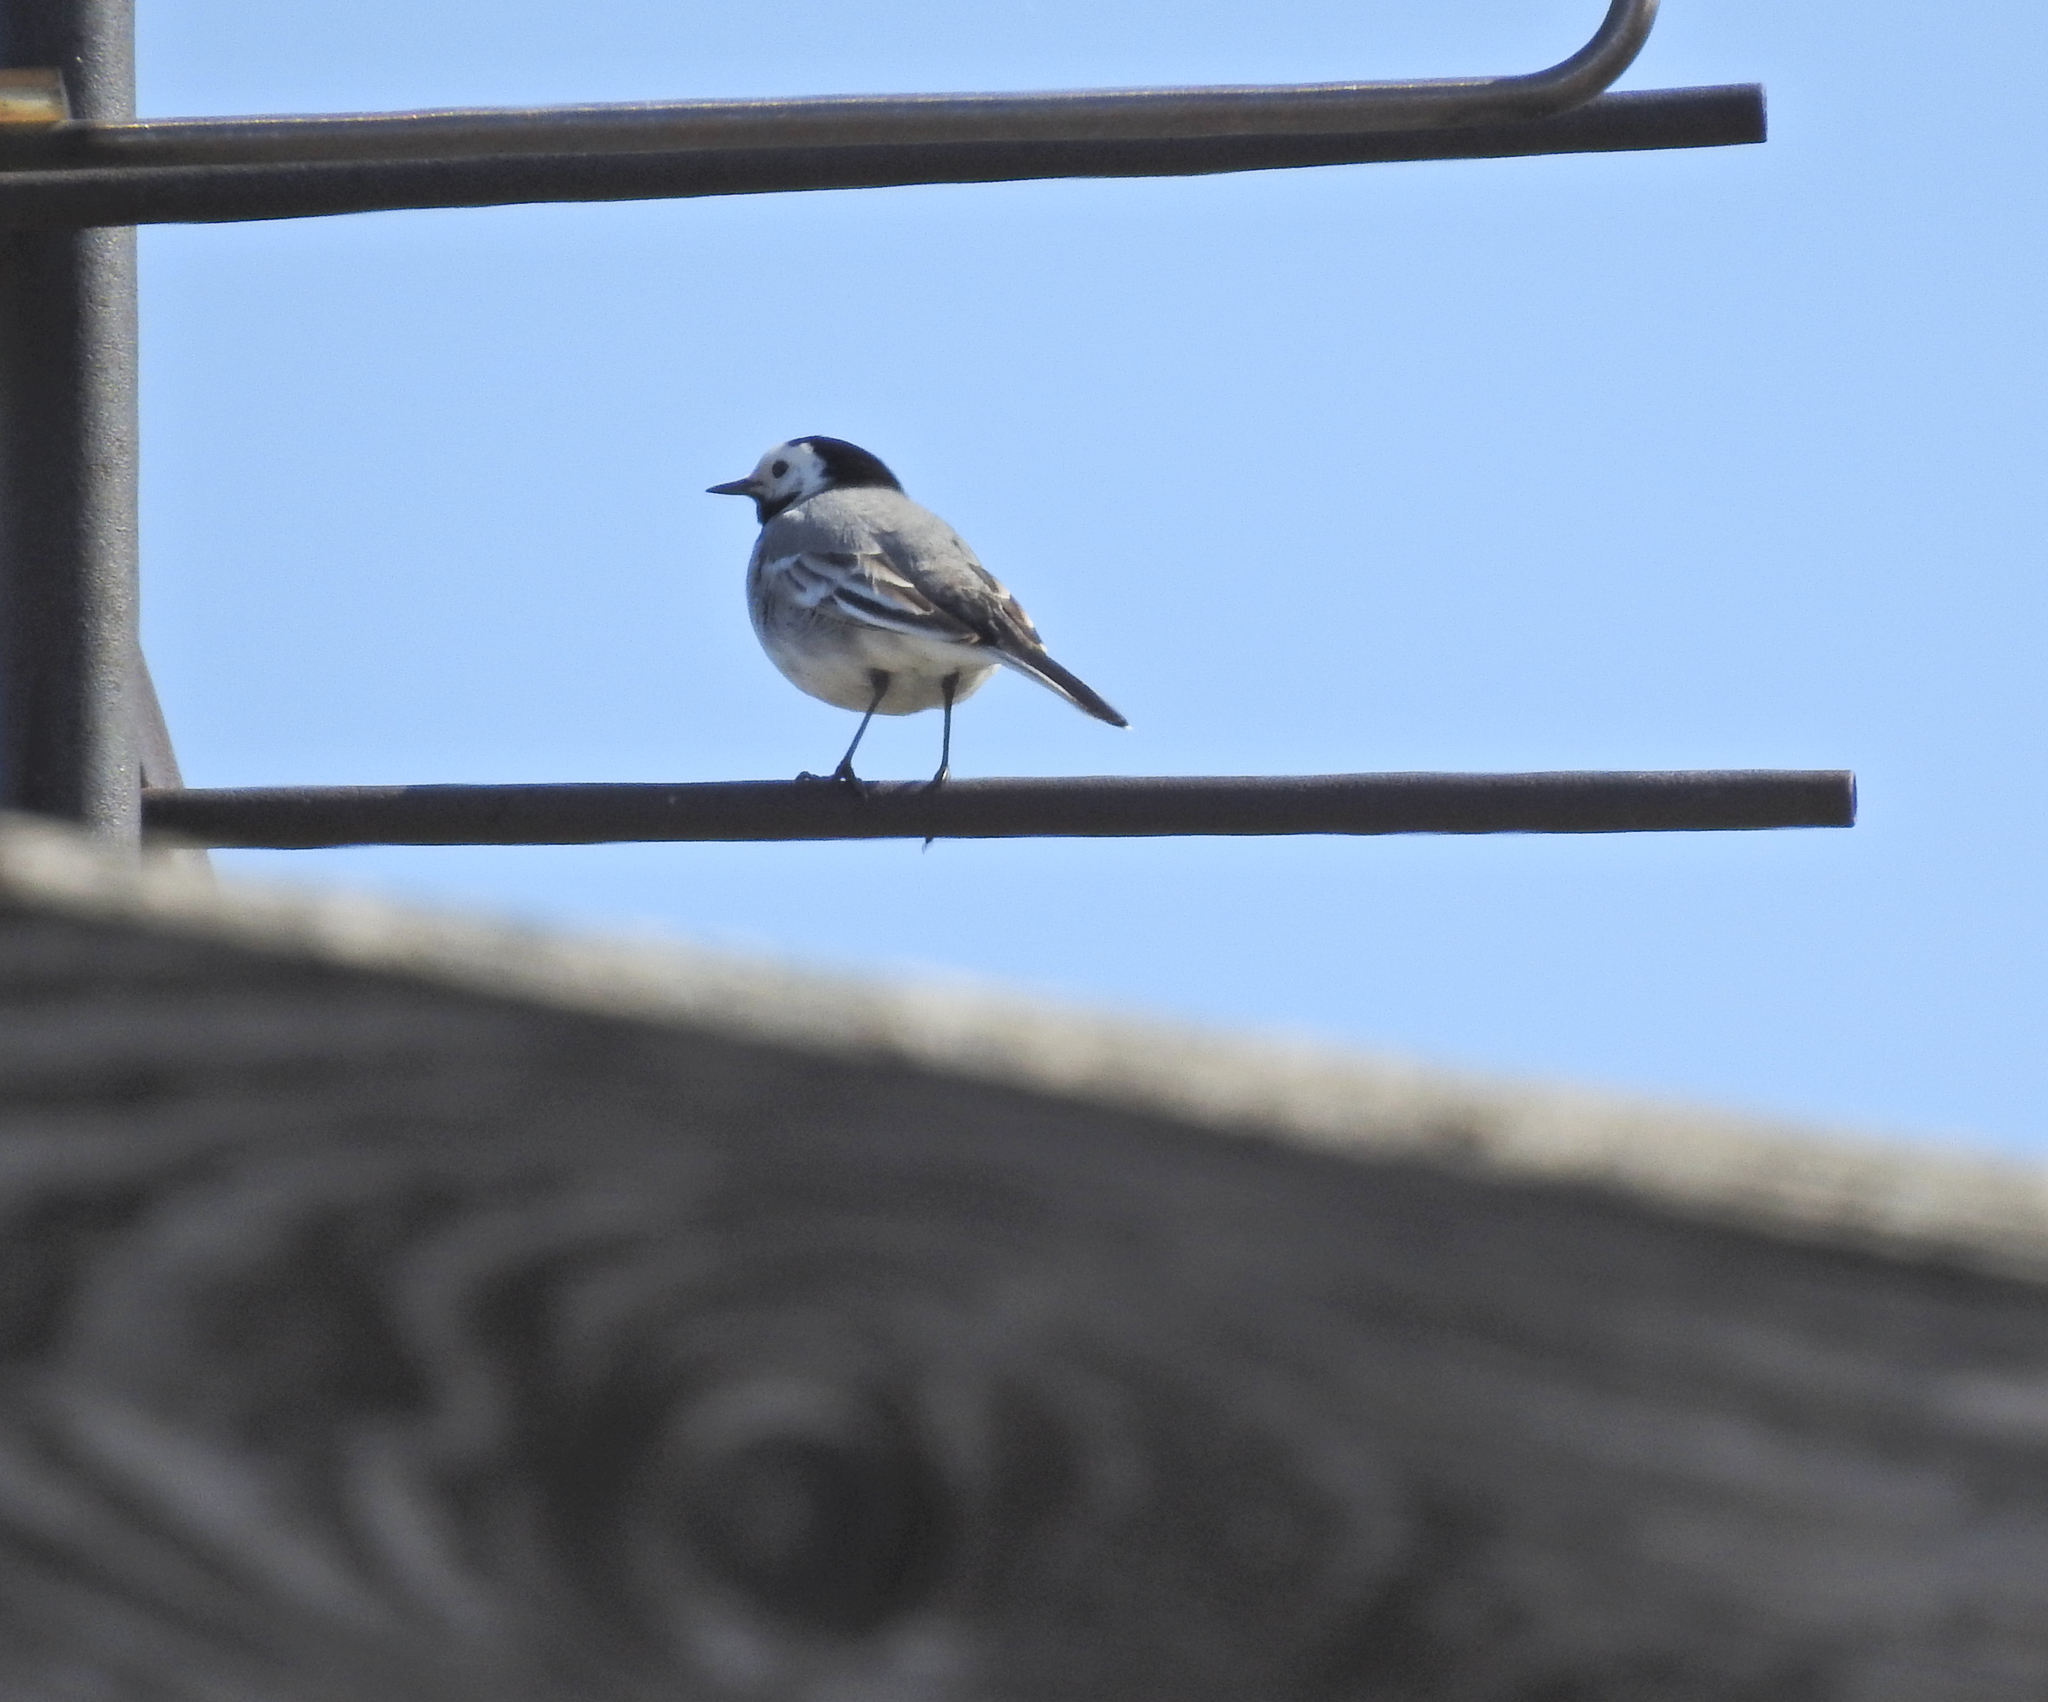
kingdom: Animalia
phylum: Chordata
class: Aves
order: Passeriformes
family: Motacillidae
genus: Motacilla
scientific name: Motacilla alba
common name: White wagtail
